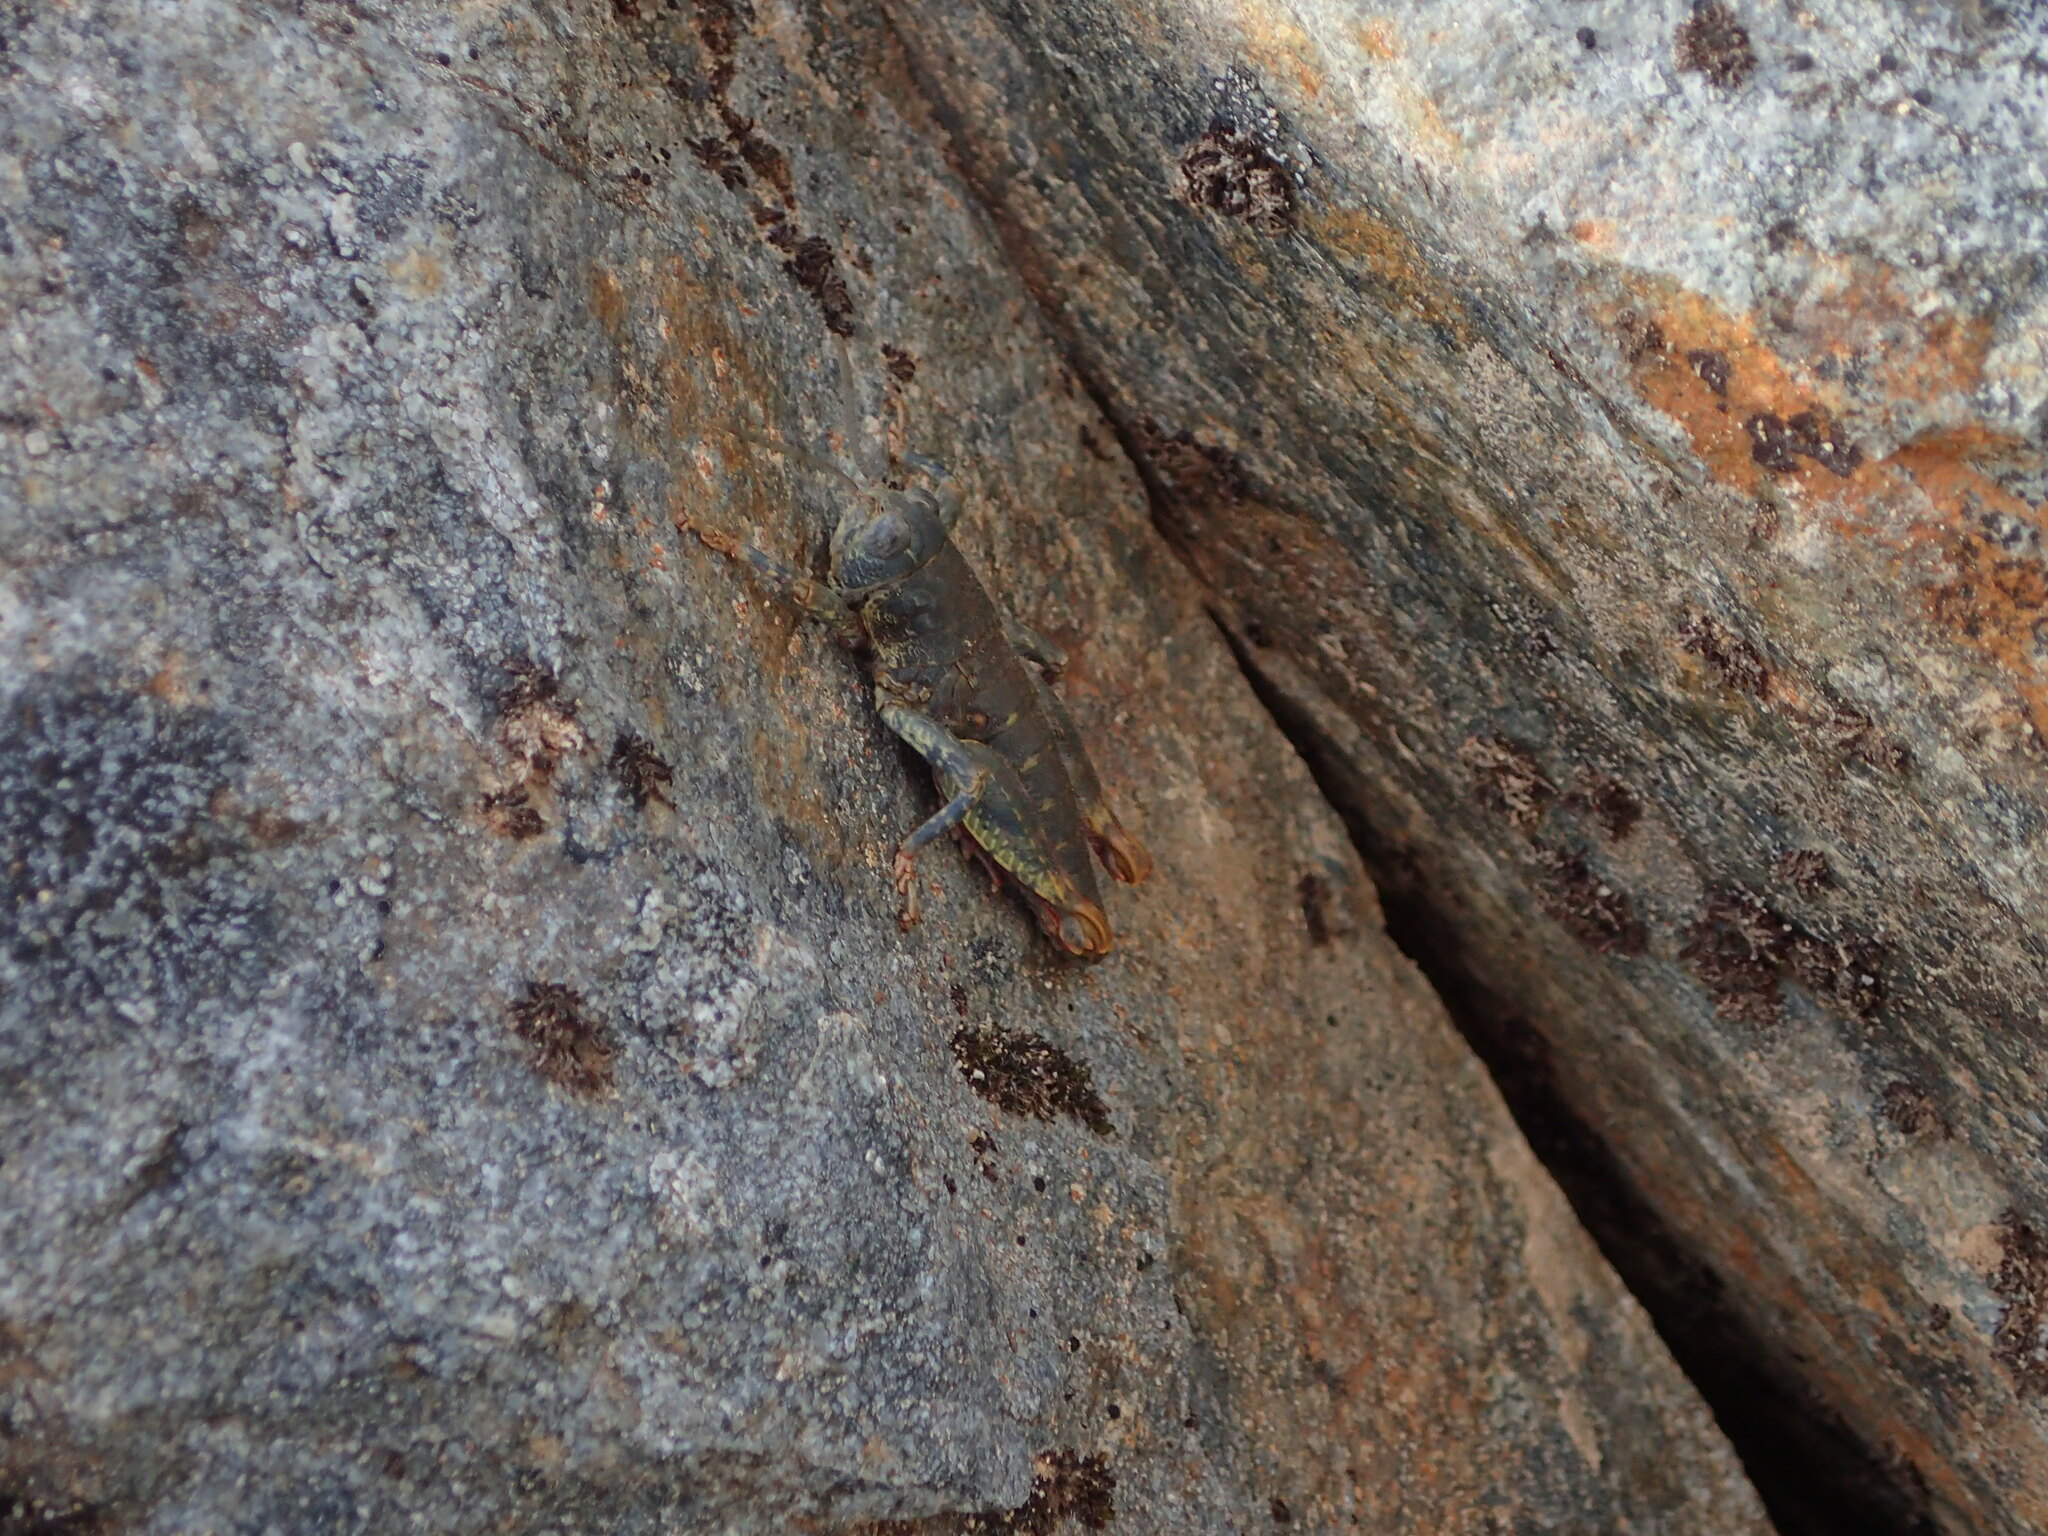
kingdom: Animalia
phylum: Arthropoda
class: Insecta
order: Orthoptera
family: Acrididae
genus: Sigaus
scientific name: Sigaus
